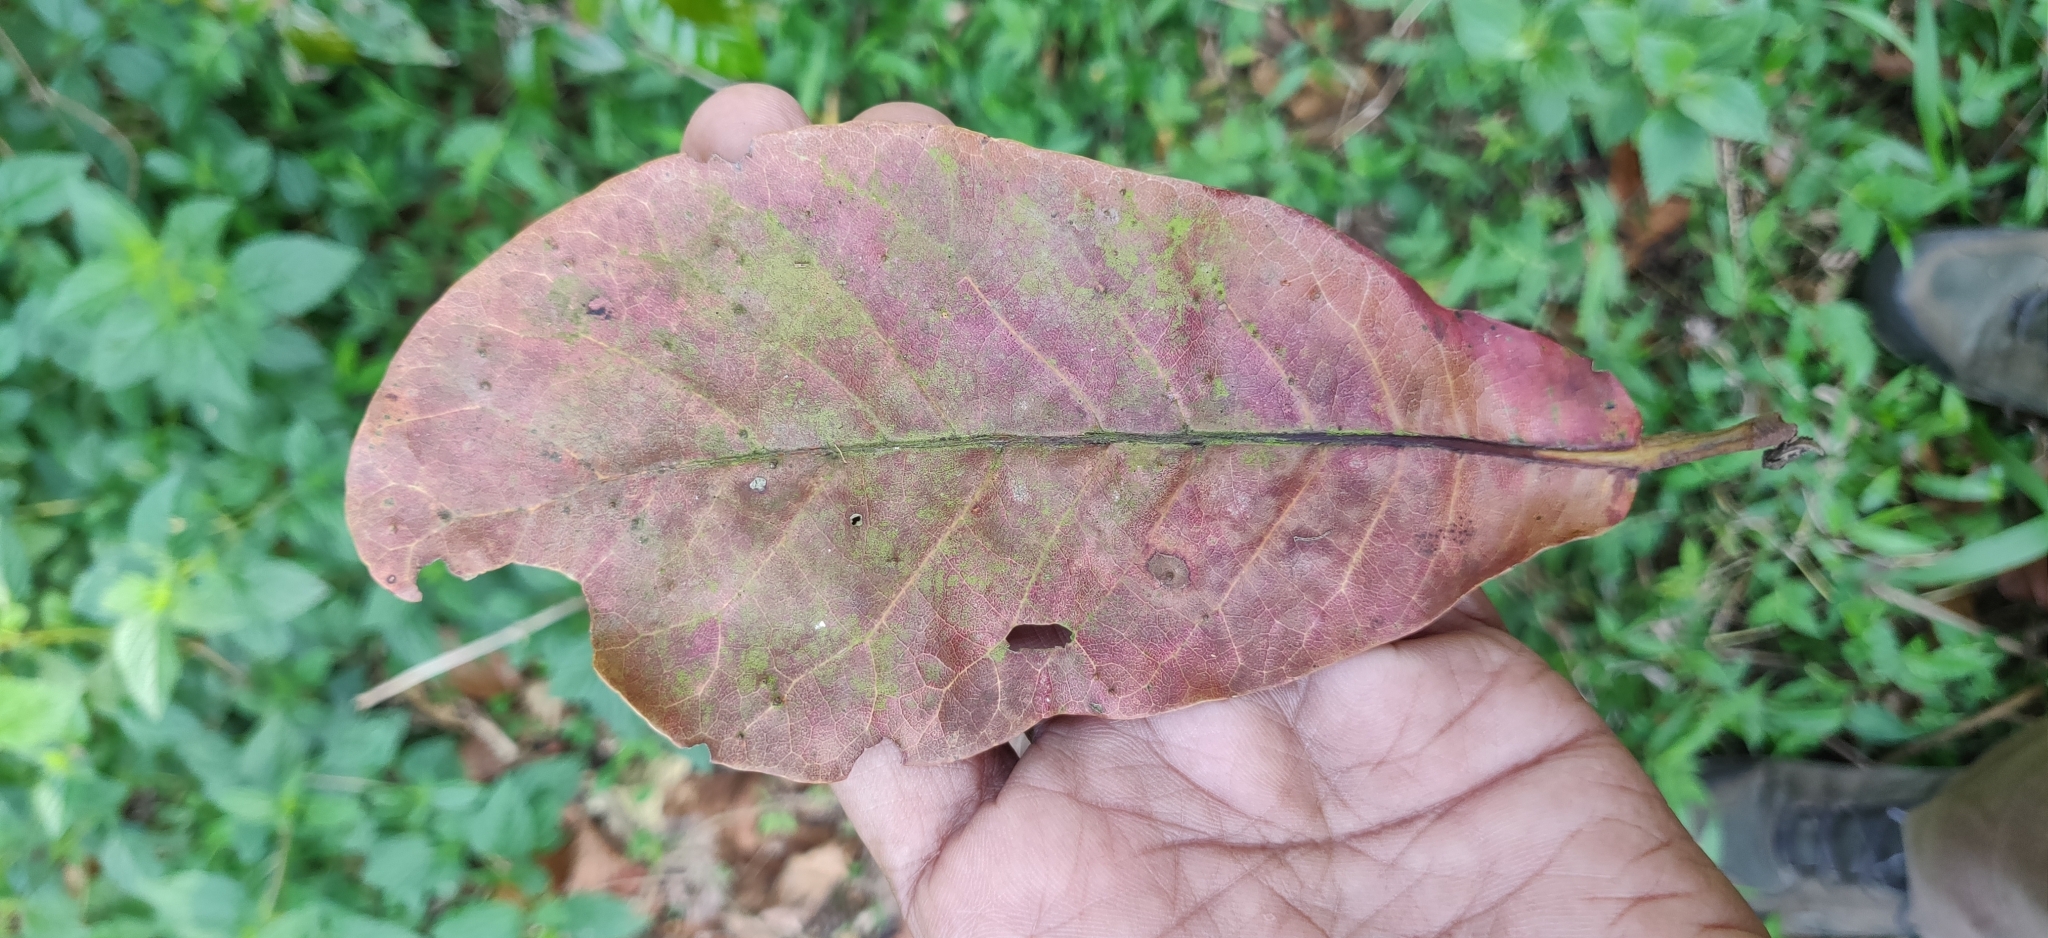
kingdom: Plantae
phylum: Tracheophyta
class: Magnoliopsida
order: Oxalidales
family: Elaeocarpaceae
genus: Elaeocarpus
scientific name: Elaeocarpus tuberculatus
